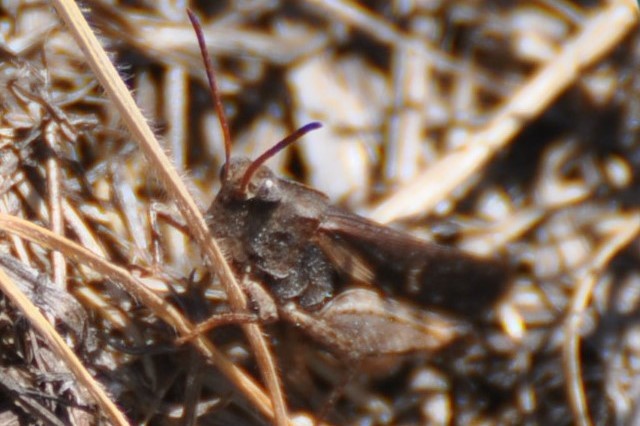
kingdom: Animalia
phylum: Arthropoda
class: Insecta
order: Orthoptera
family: Acrididae
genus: Chortophaga
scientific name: Chortophaga viridifasciata
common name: Green-striped grasshopper
